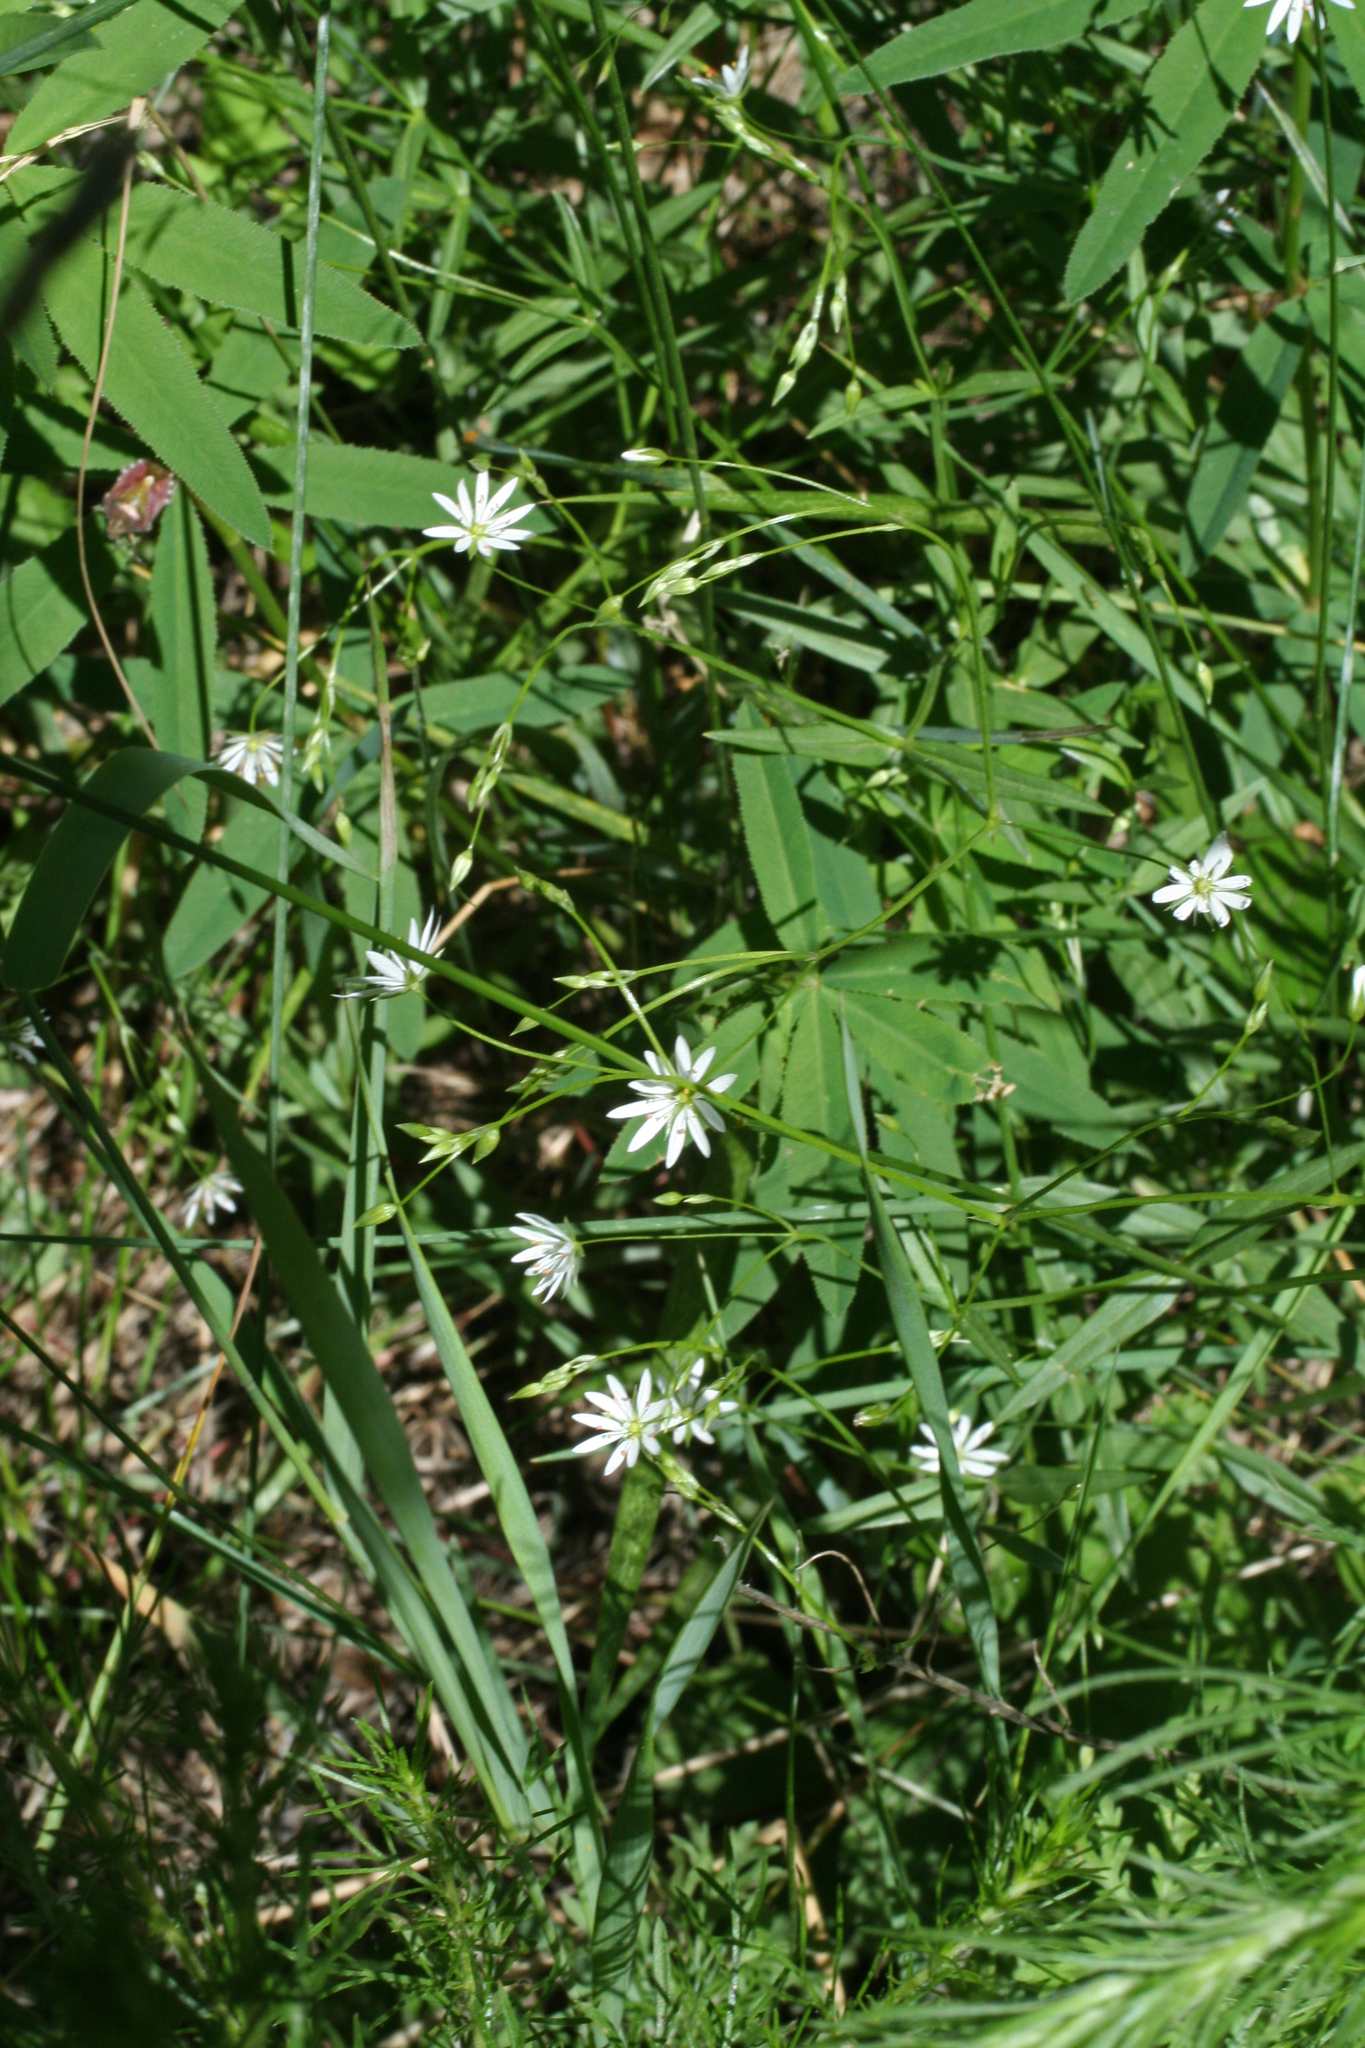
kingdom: Plantae
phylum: Tracheophyta
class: Magnoliopsida
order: Caryophyllales
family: Caryophyllaceae
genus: Stellaria
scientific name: Stellaria graminea
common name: Grass-like starwort
